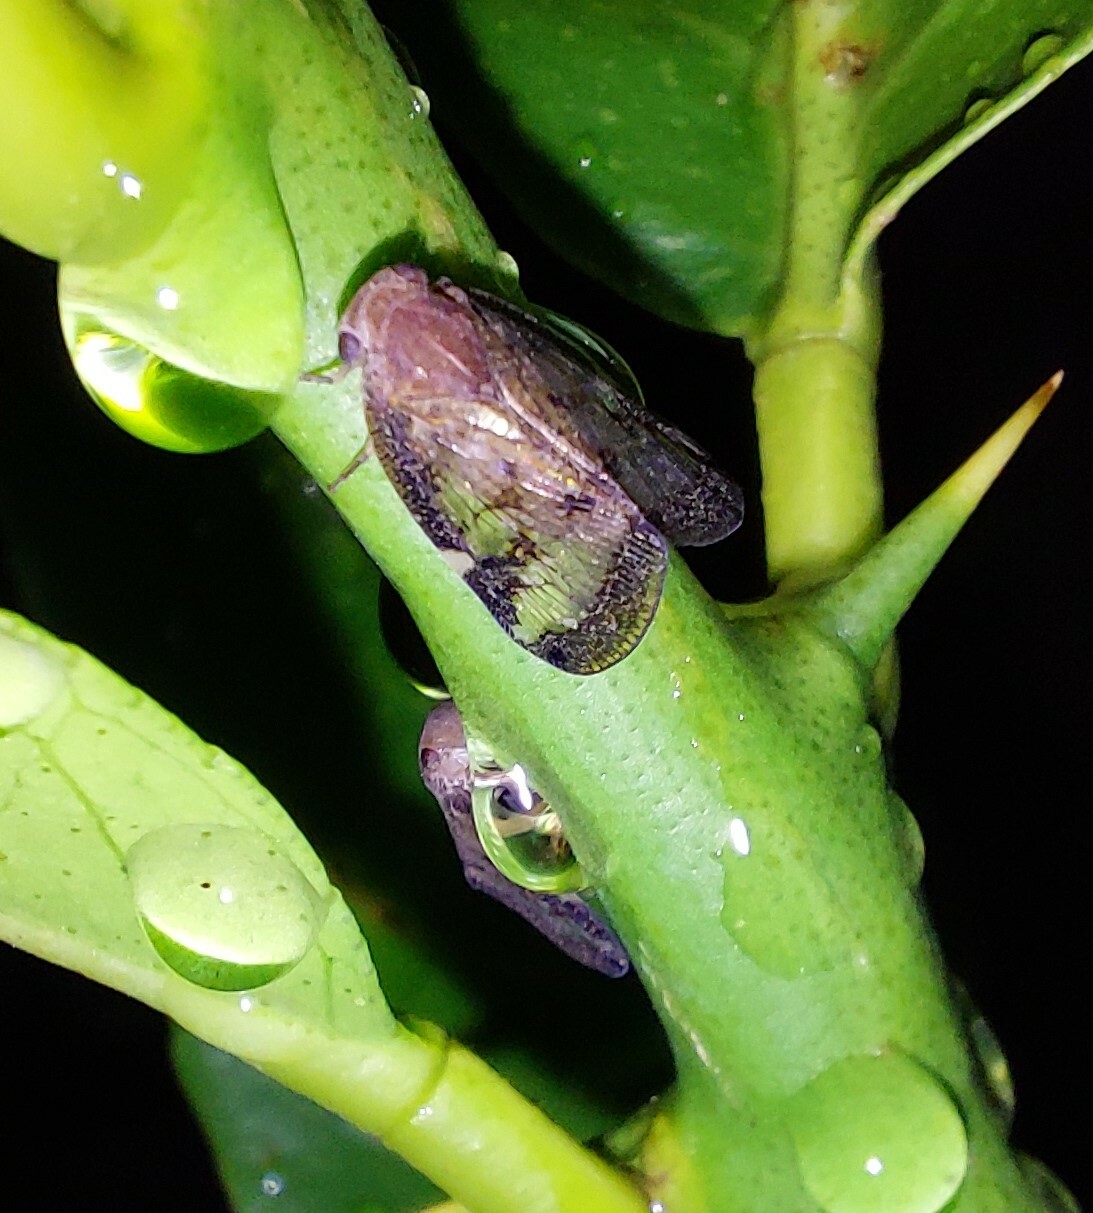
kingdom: Animalia
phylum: Arthropoda
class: Insecta
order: Hemiptera
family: Ricaniidae
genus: Scolypopa
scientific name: Scolypopa australis
